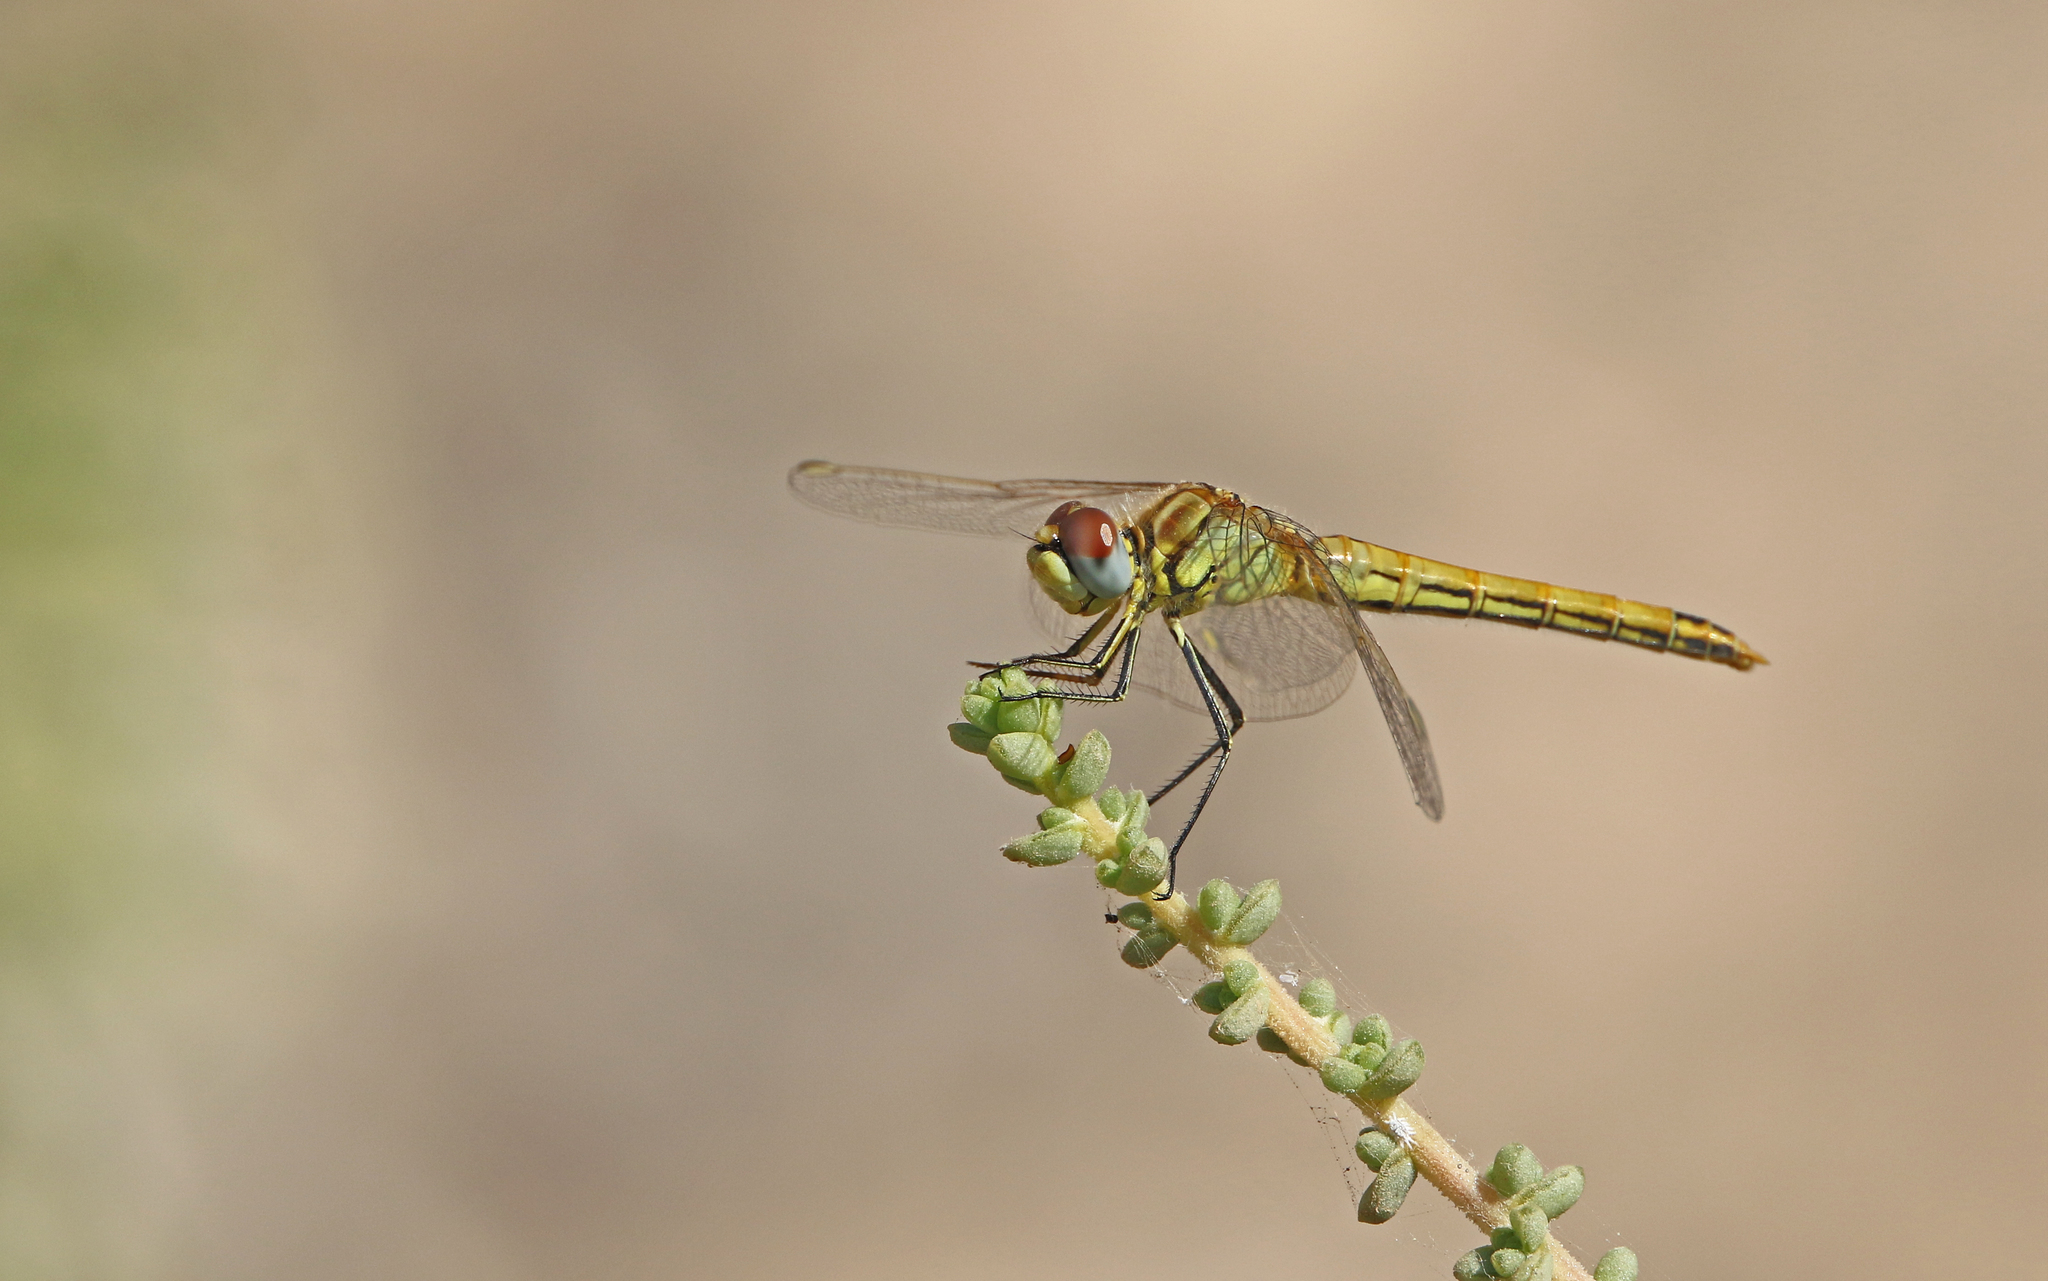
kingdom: Animalia
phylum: Arthropoda
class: Insecta
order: Odonata
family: Libellulidae
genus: Sympetrum
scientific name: Sympetrum fonscolombii
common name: Red-veined darter
